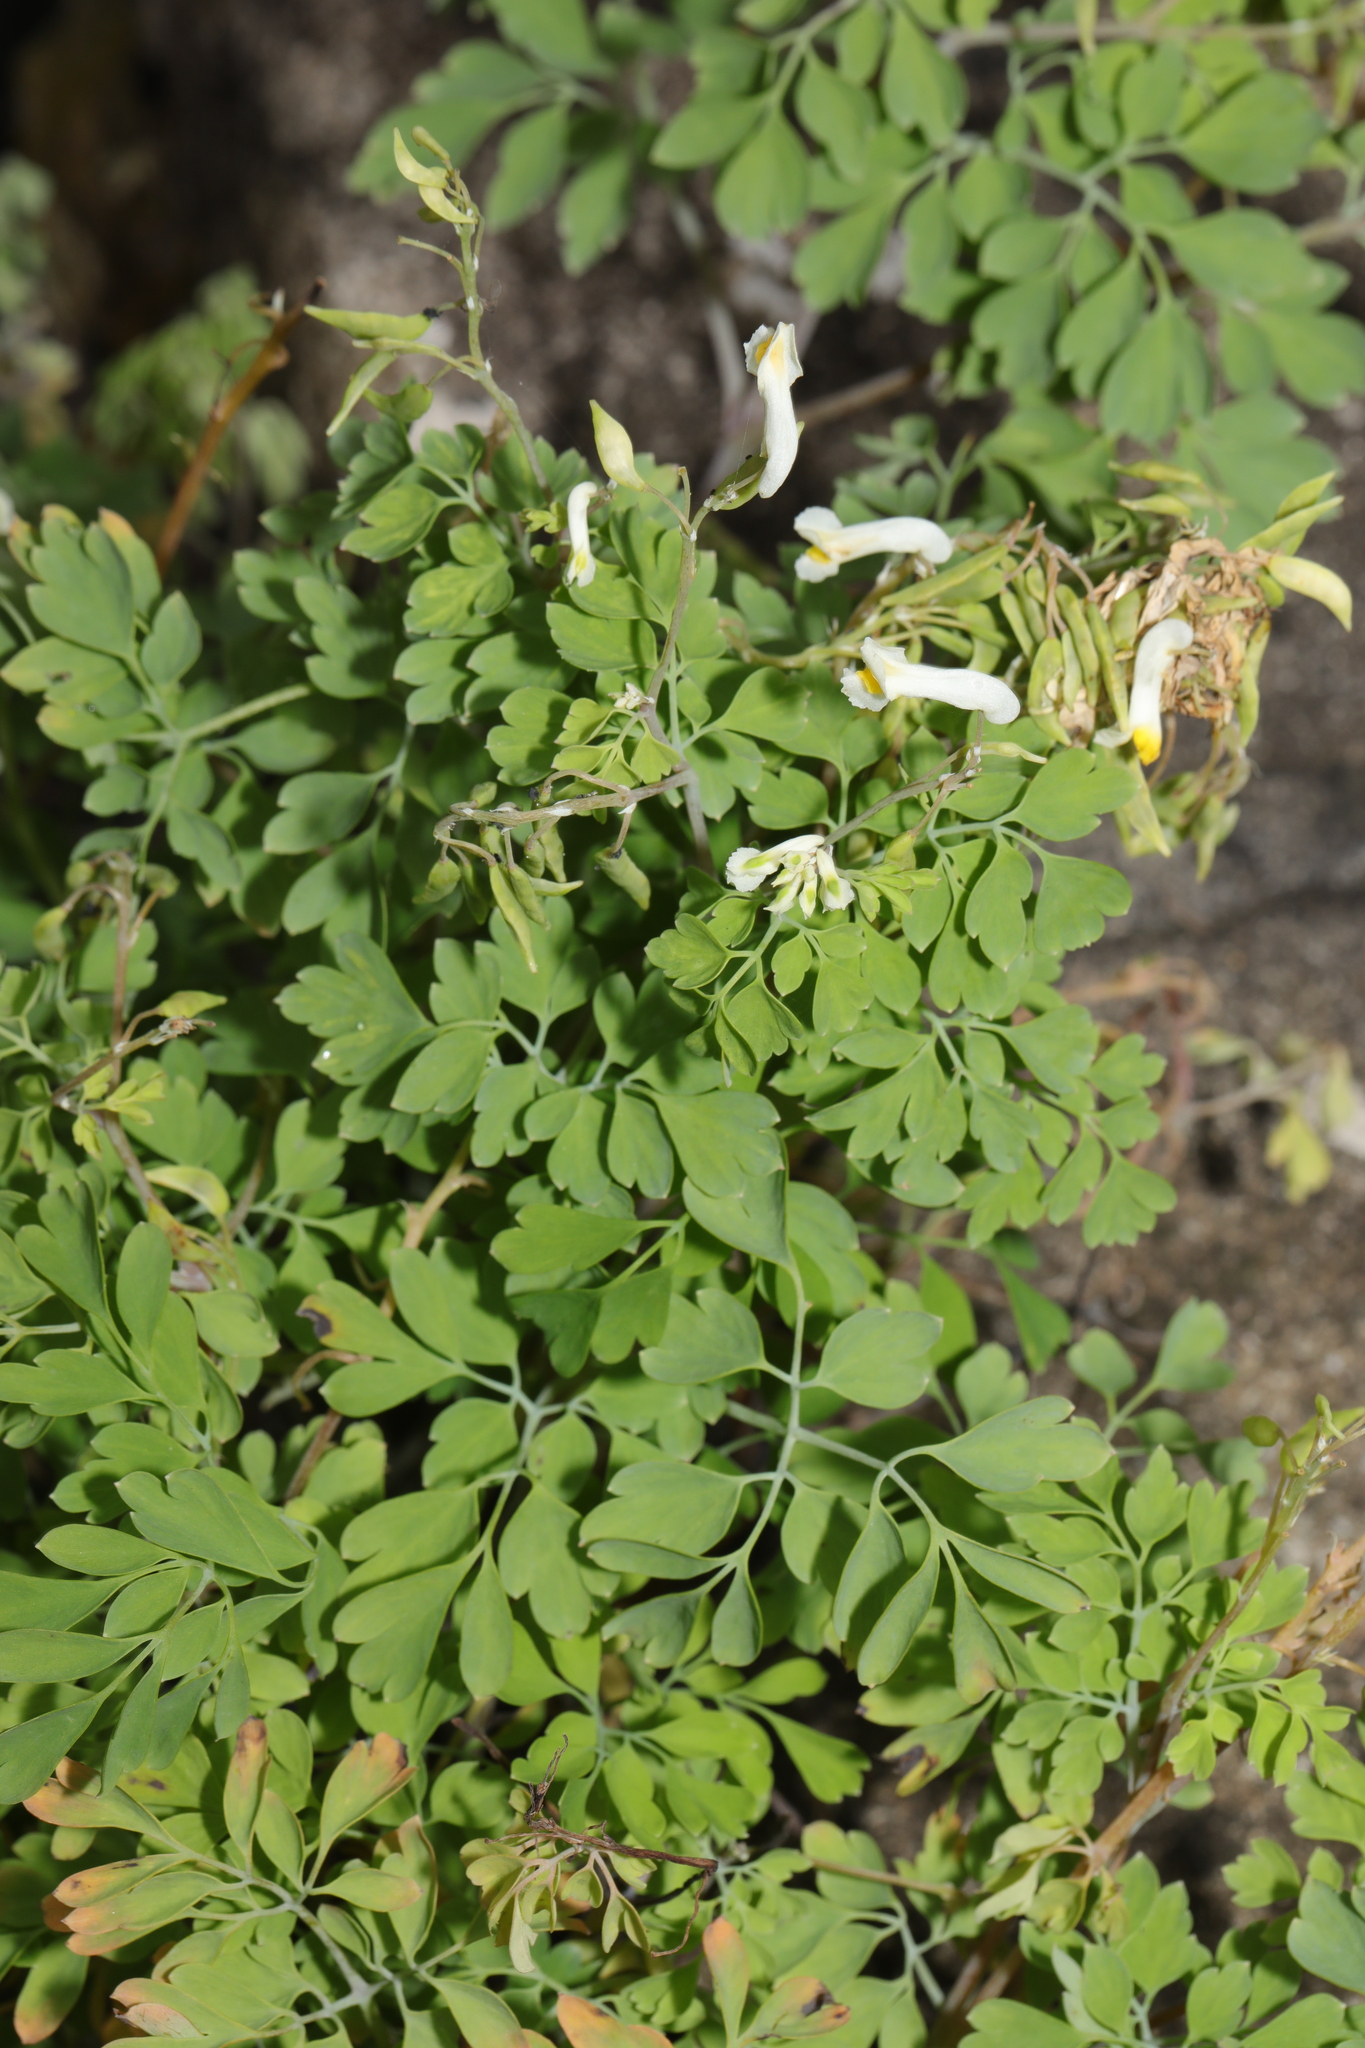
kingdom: Plantae
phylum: Tracheophyta
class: Magnoliopsida
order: Ranunculales
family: Papaveraceae
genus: Pseudofumaria
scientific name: Pseudofumaria alba
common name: Pale corydalis
